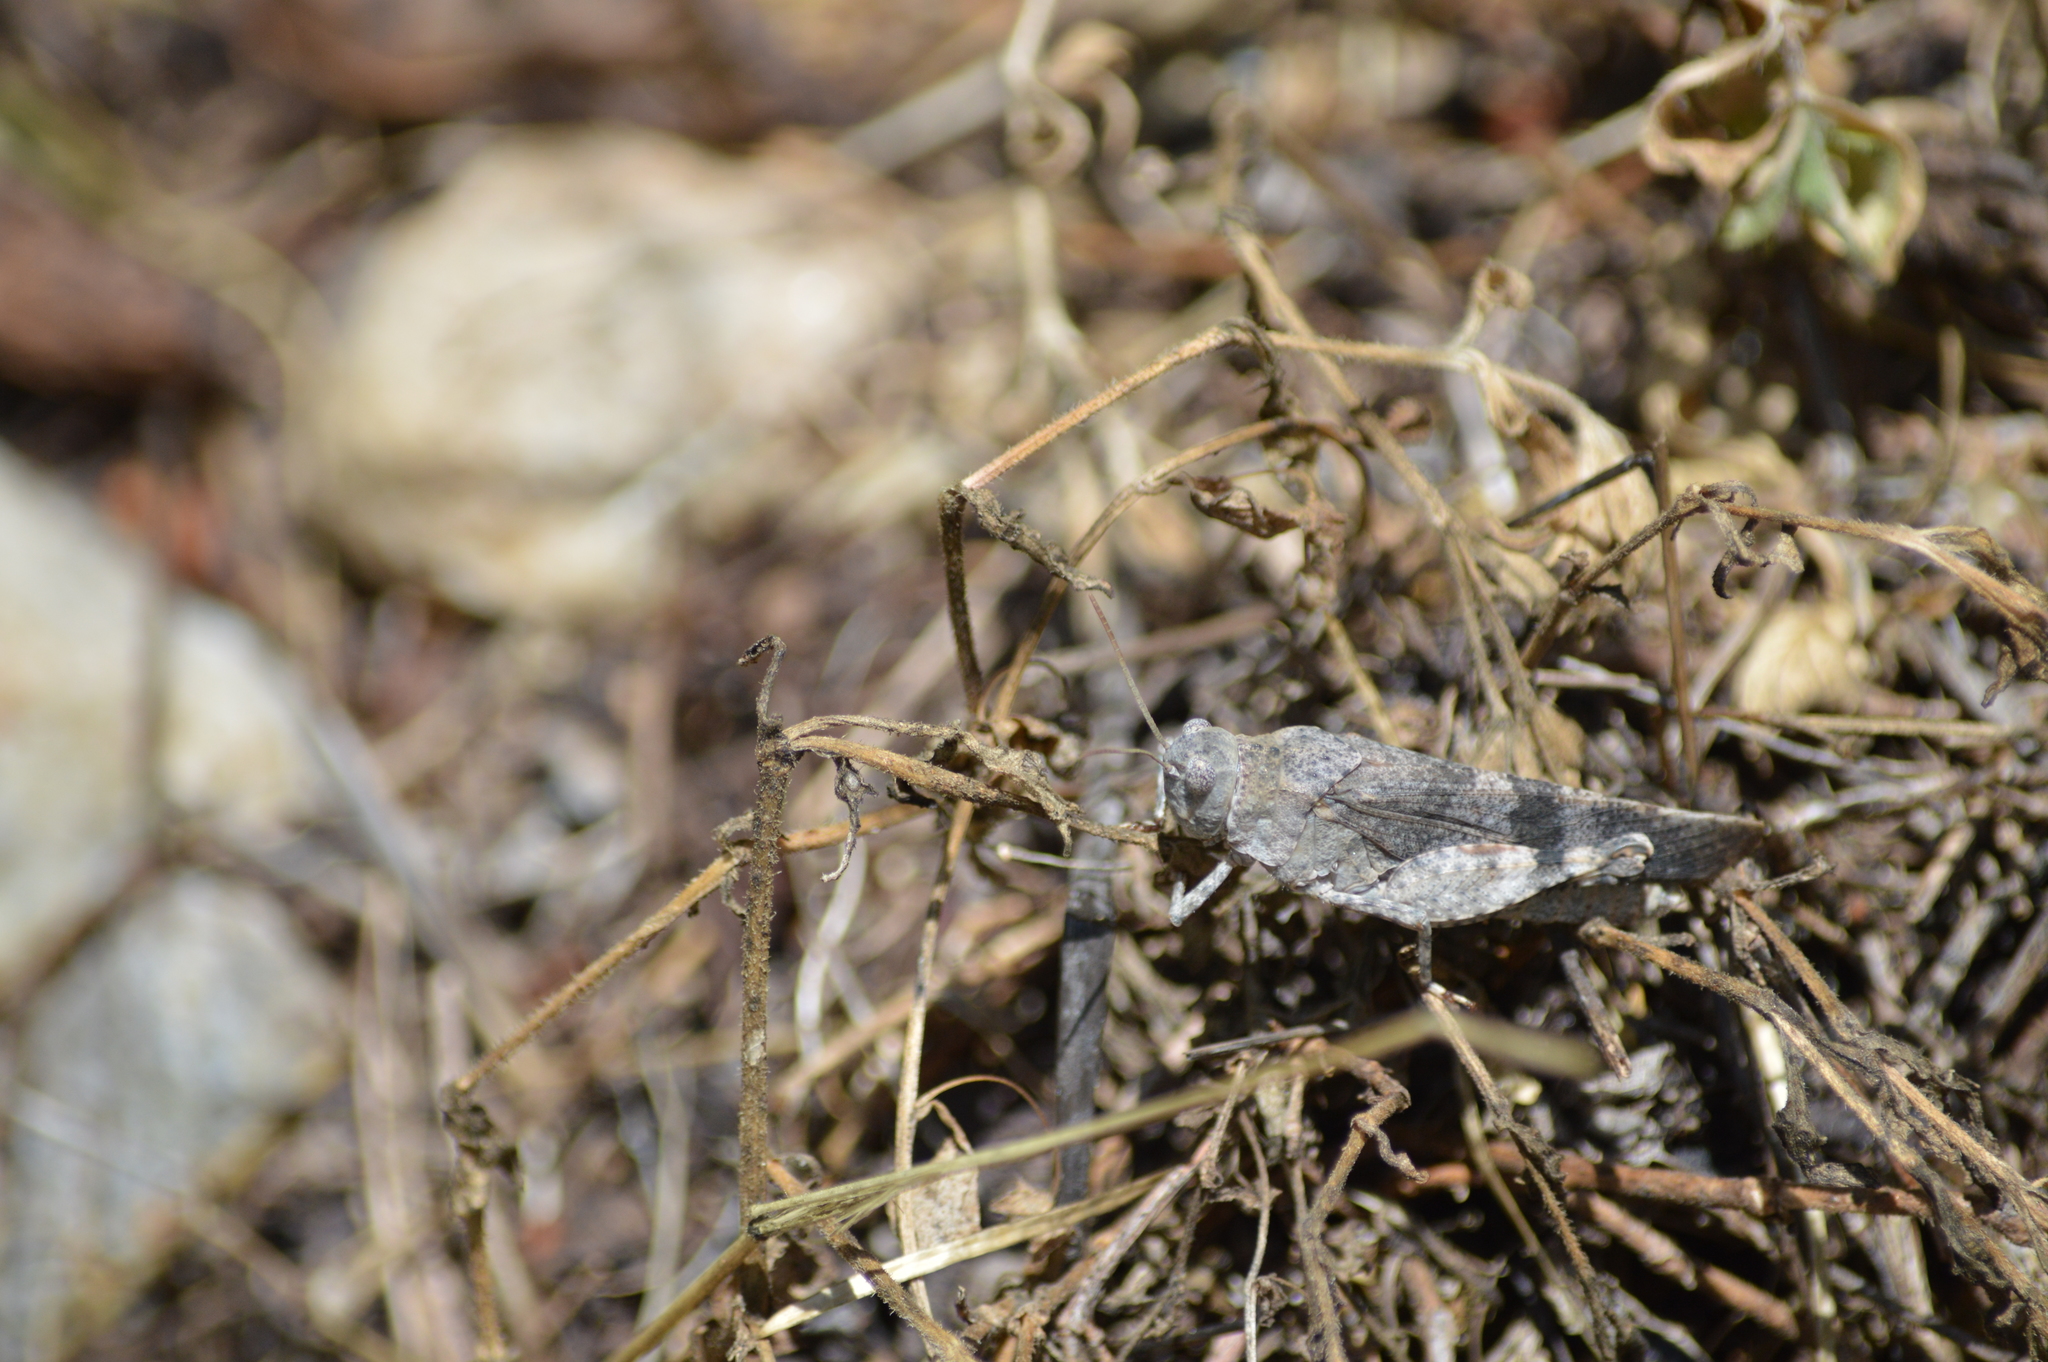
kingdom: Animalia
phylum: Arthropoda
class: Insecta
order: Orthoptera
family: Acrididae
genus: Oedipoda
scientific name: Oedipoda germanica
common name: Red band-winged grasshopper
